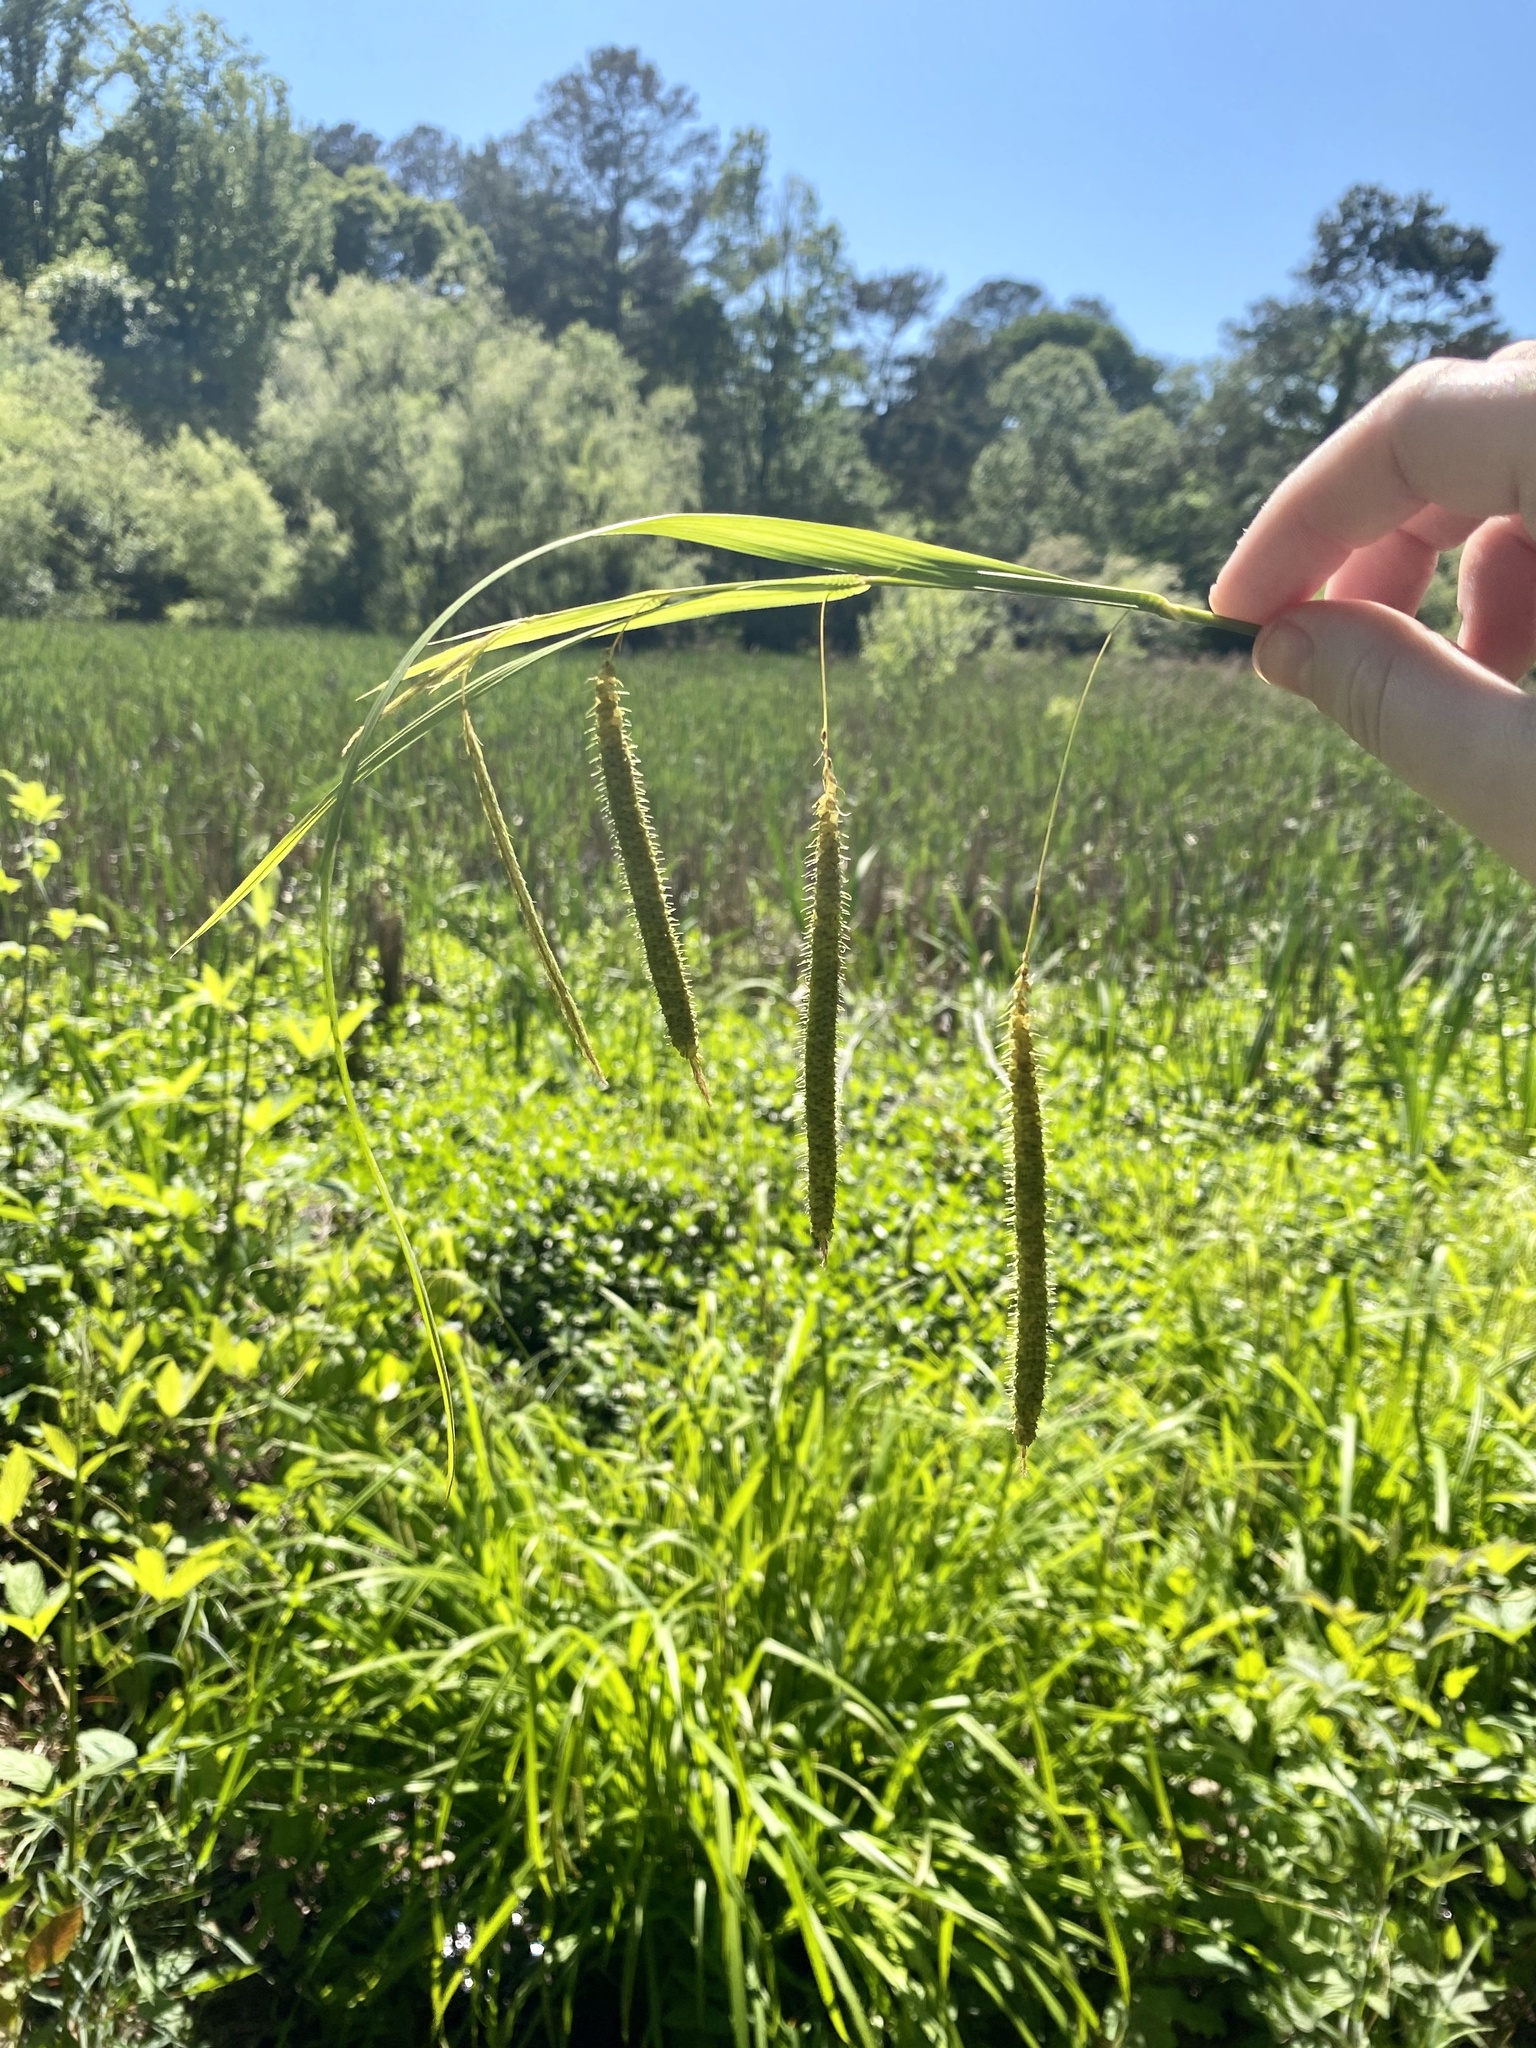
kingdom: Plantae
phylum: Tracheophyta
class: Liliopsida
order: Poales
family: Cyperaceae
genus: Carex
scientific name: Carex crinita
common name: Fringed sedge
